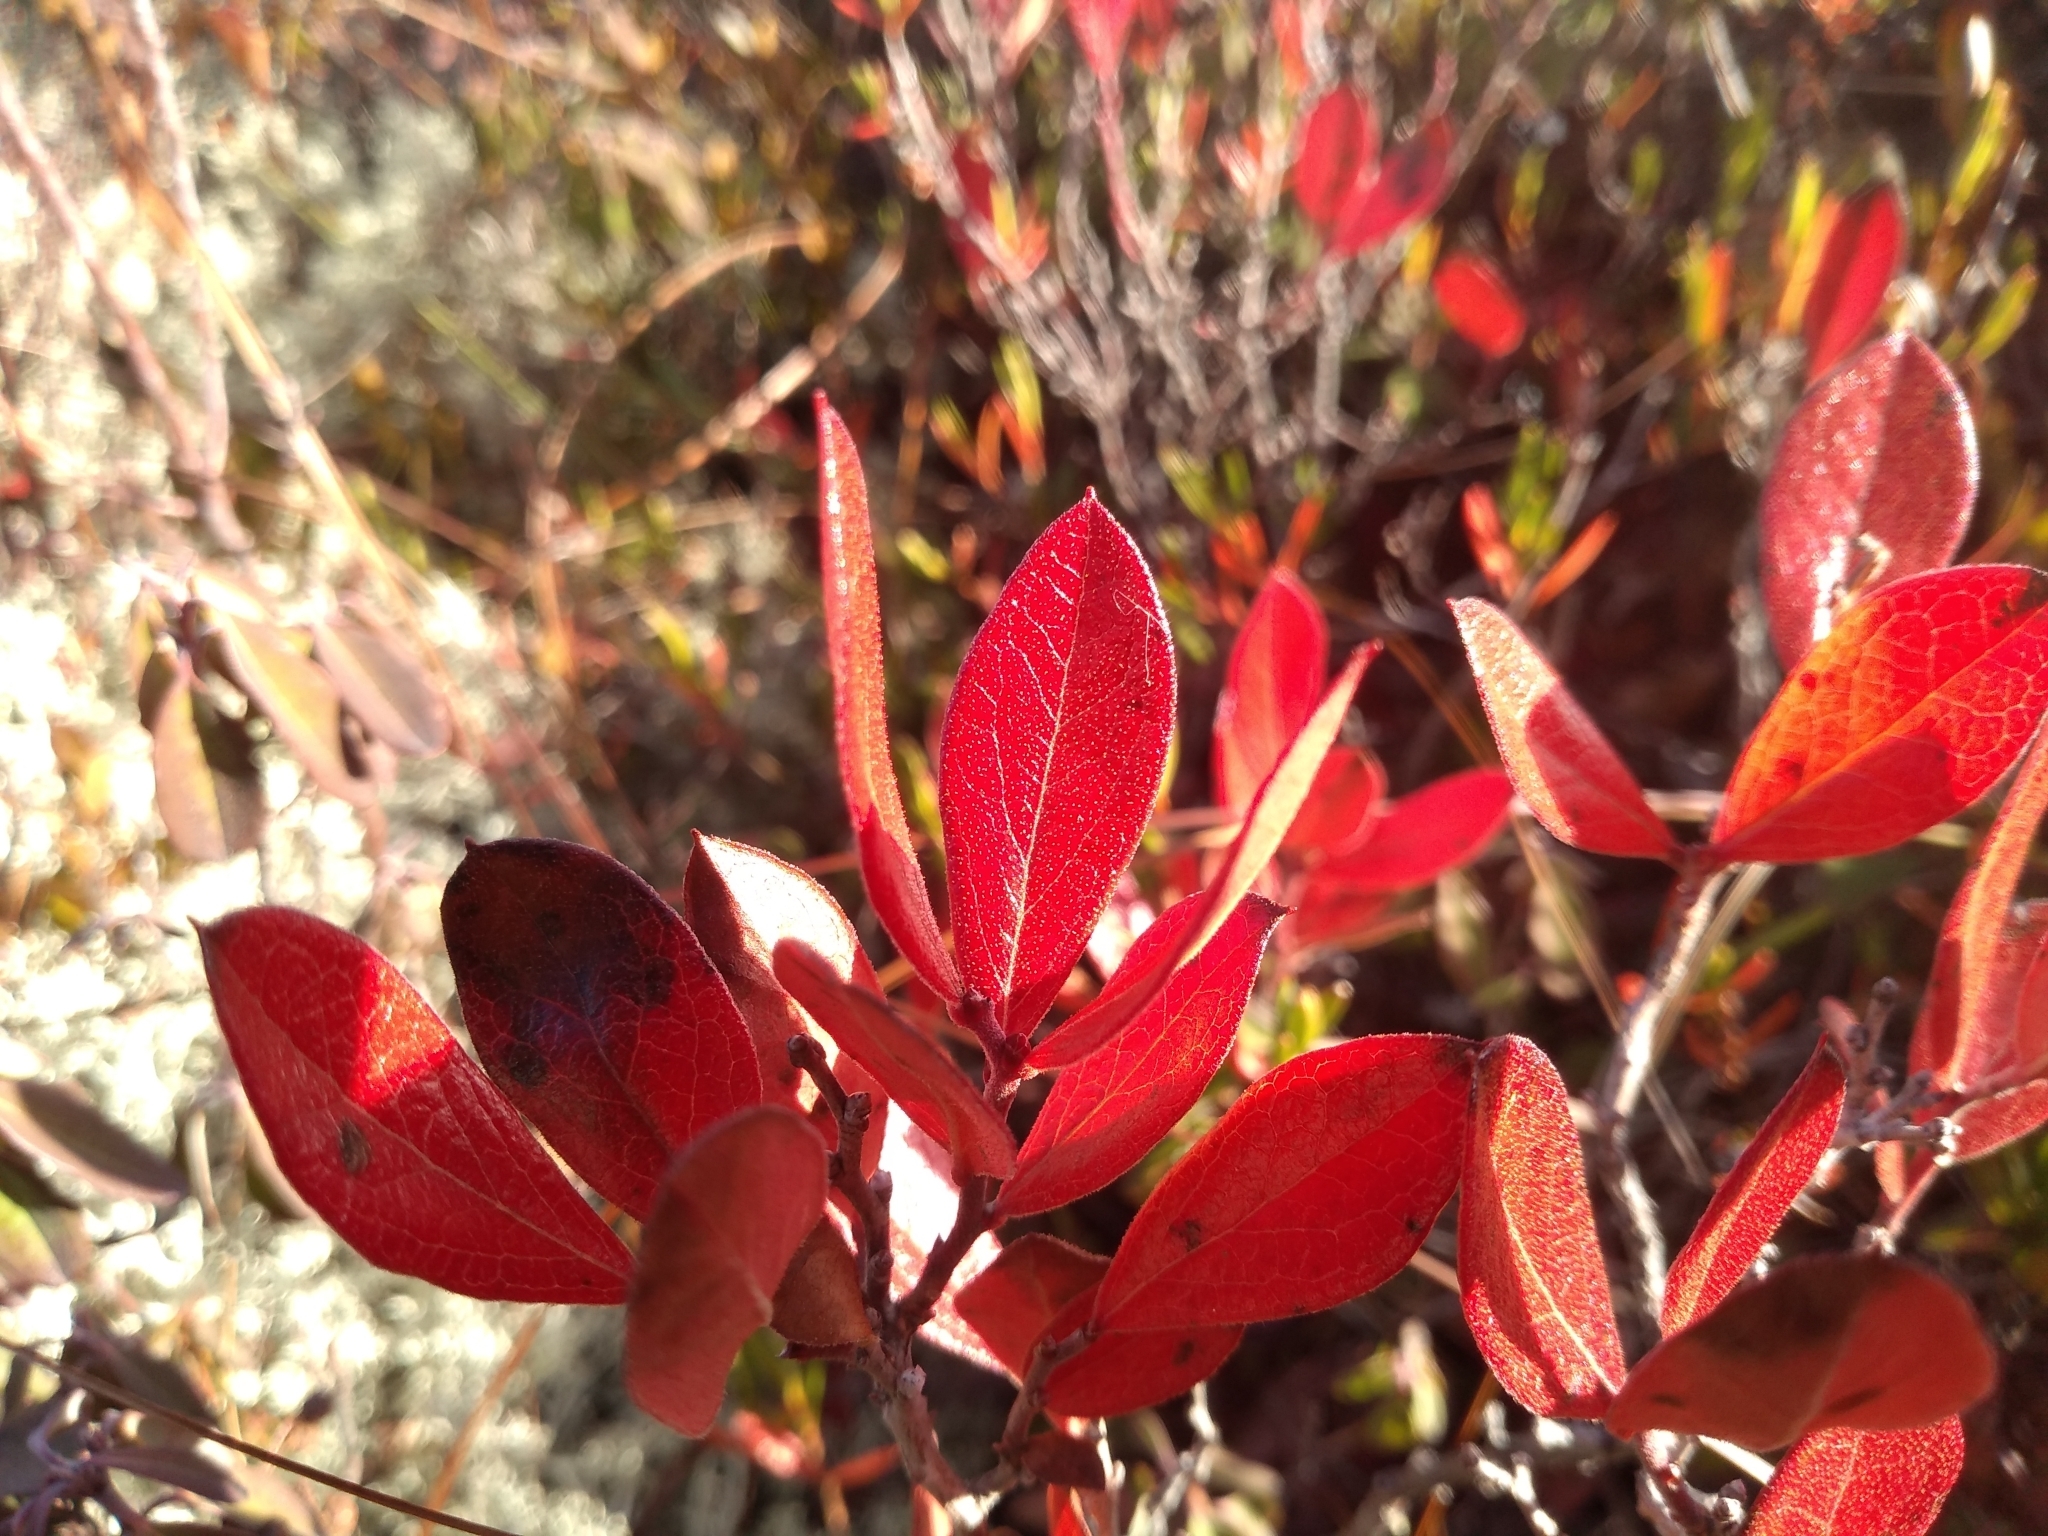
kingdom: Plantae
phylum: Tracheophyta
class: Magnoliopsida
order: Ericales
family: Ericaceae
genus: Gaylussacia
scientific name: Gaylussacia bigeloviana
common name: Bog huckleberry
